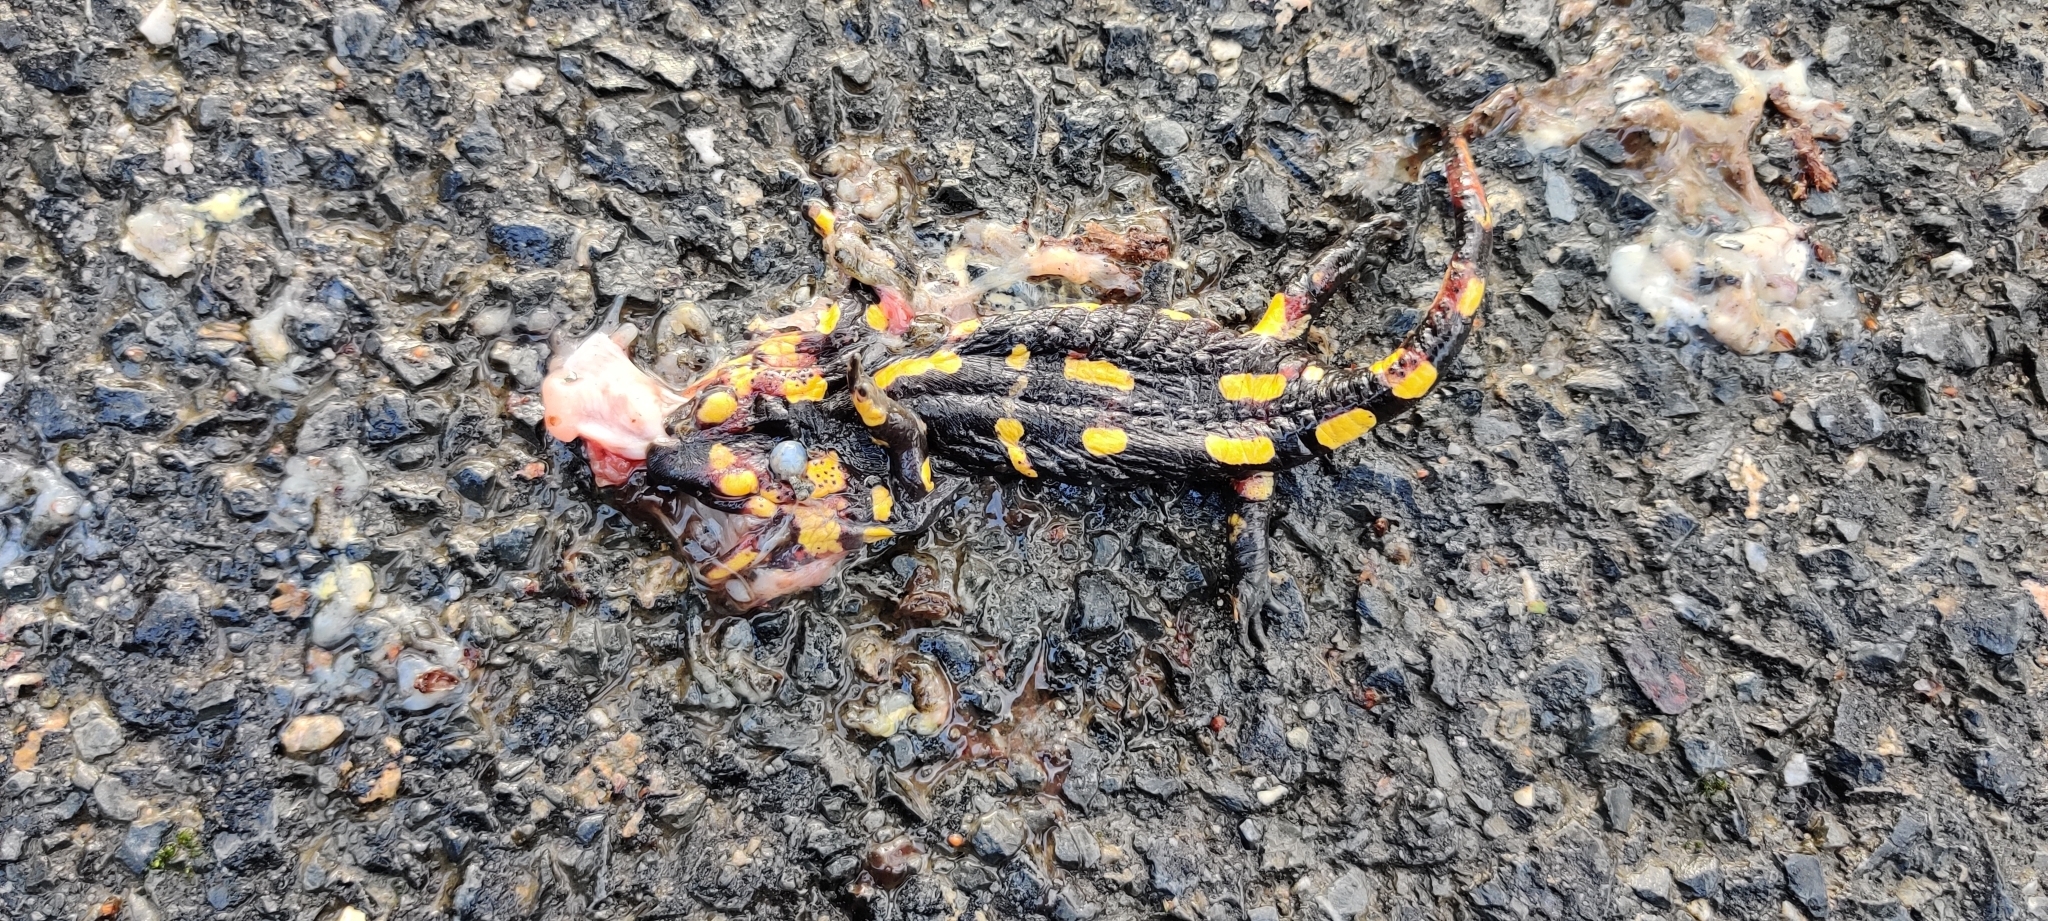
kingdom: Animalia
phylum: Chordata
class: Amphibia
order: Caudata
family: Salamandridae
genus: Salamandra
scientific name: Salamandra salamandra
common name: Fire salamander
